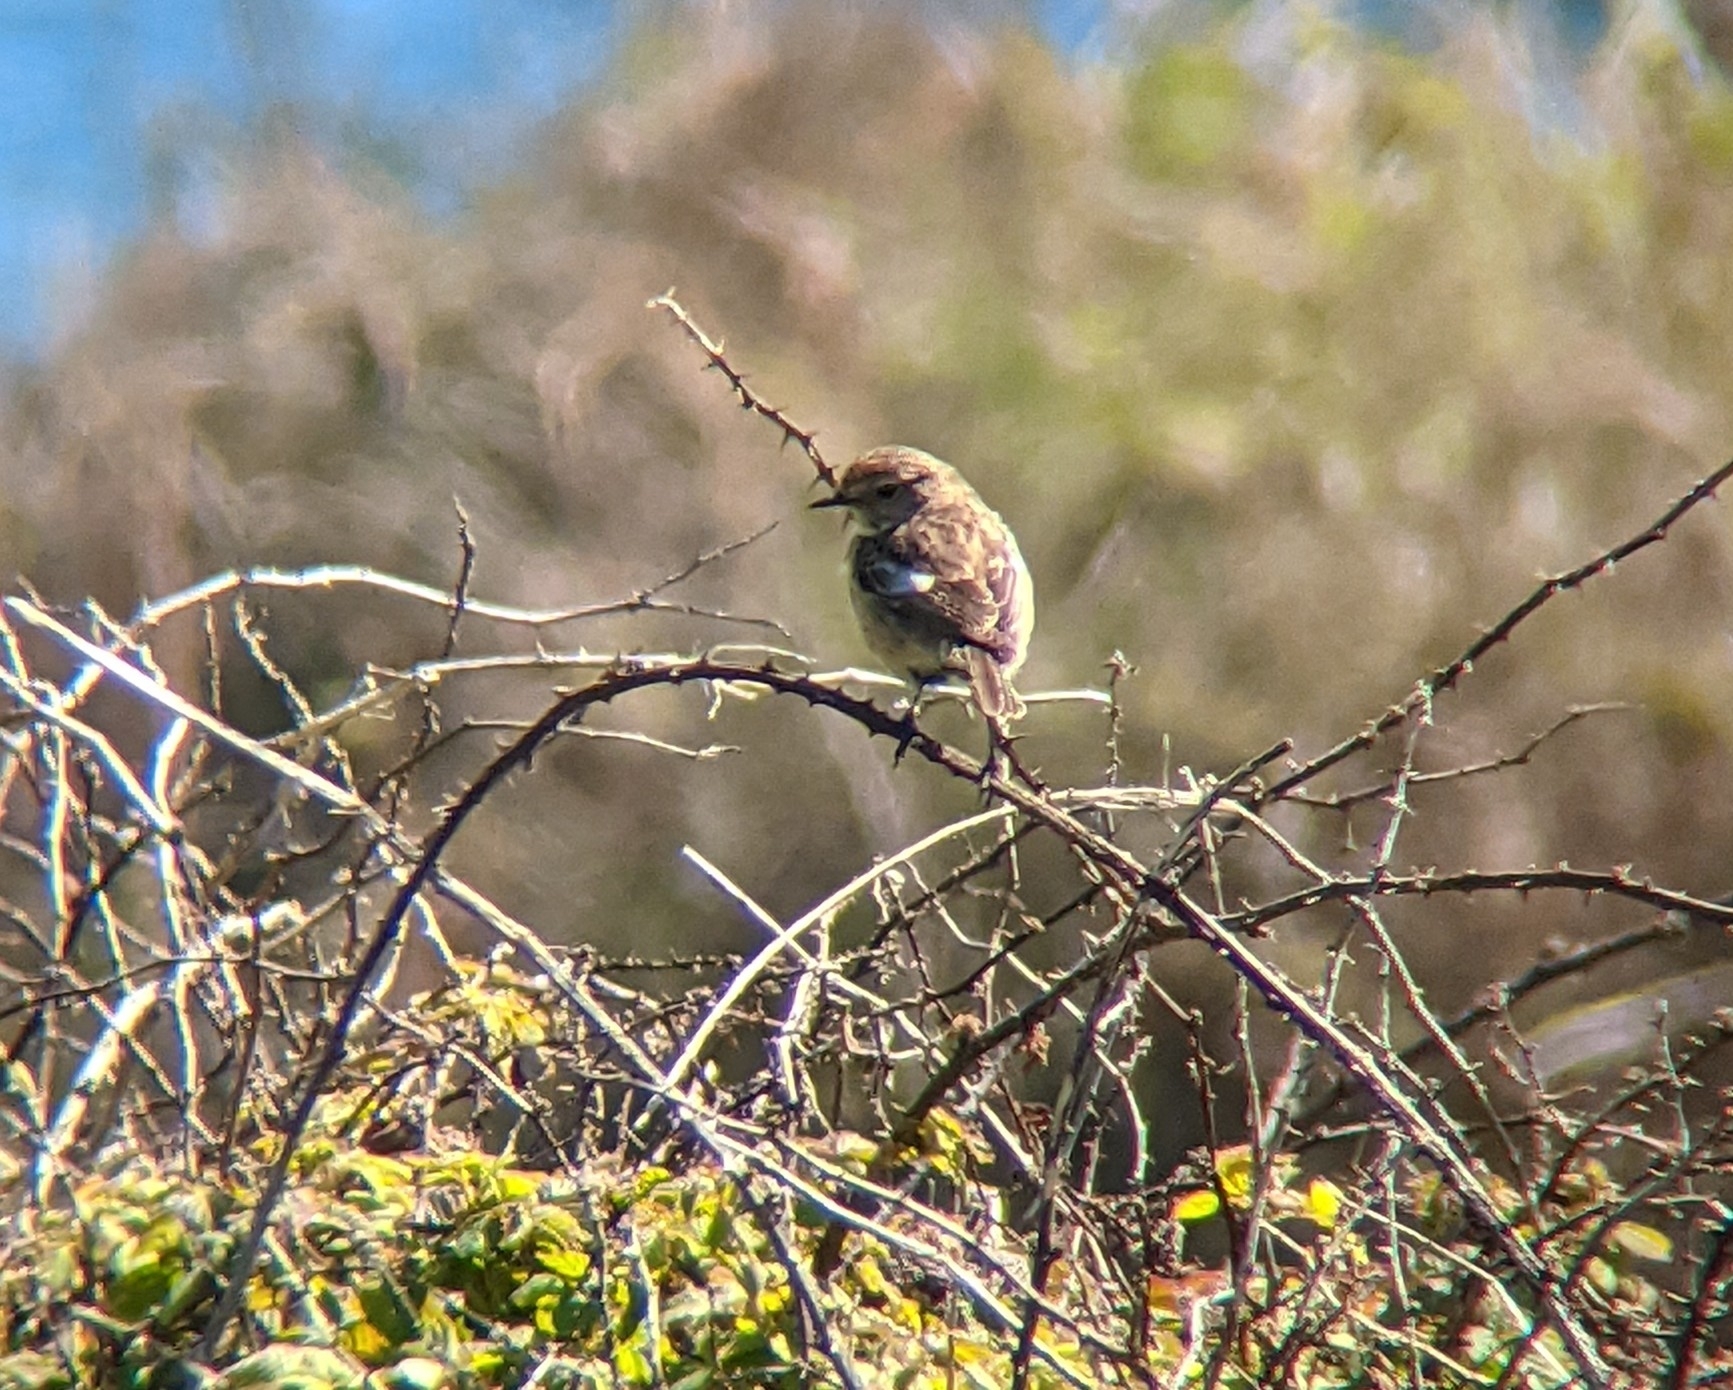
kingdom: Animalia
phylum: Chordata
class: Aves
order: Passeriformes
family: Muscicapidae
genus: Saxicola
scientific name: Saxicola rubicola
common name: European stonechat
